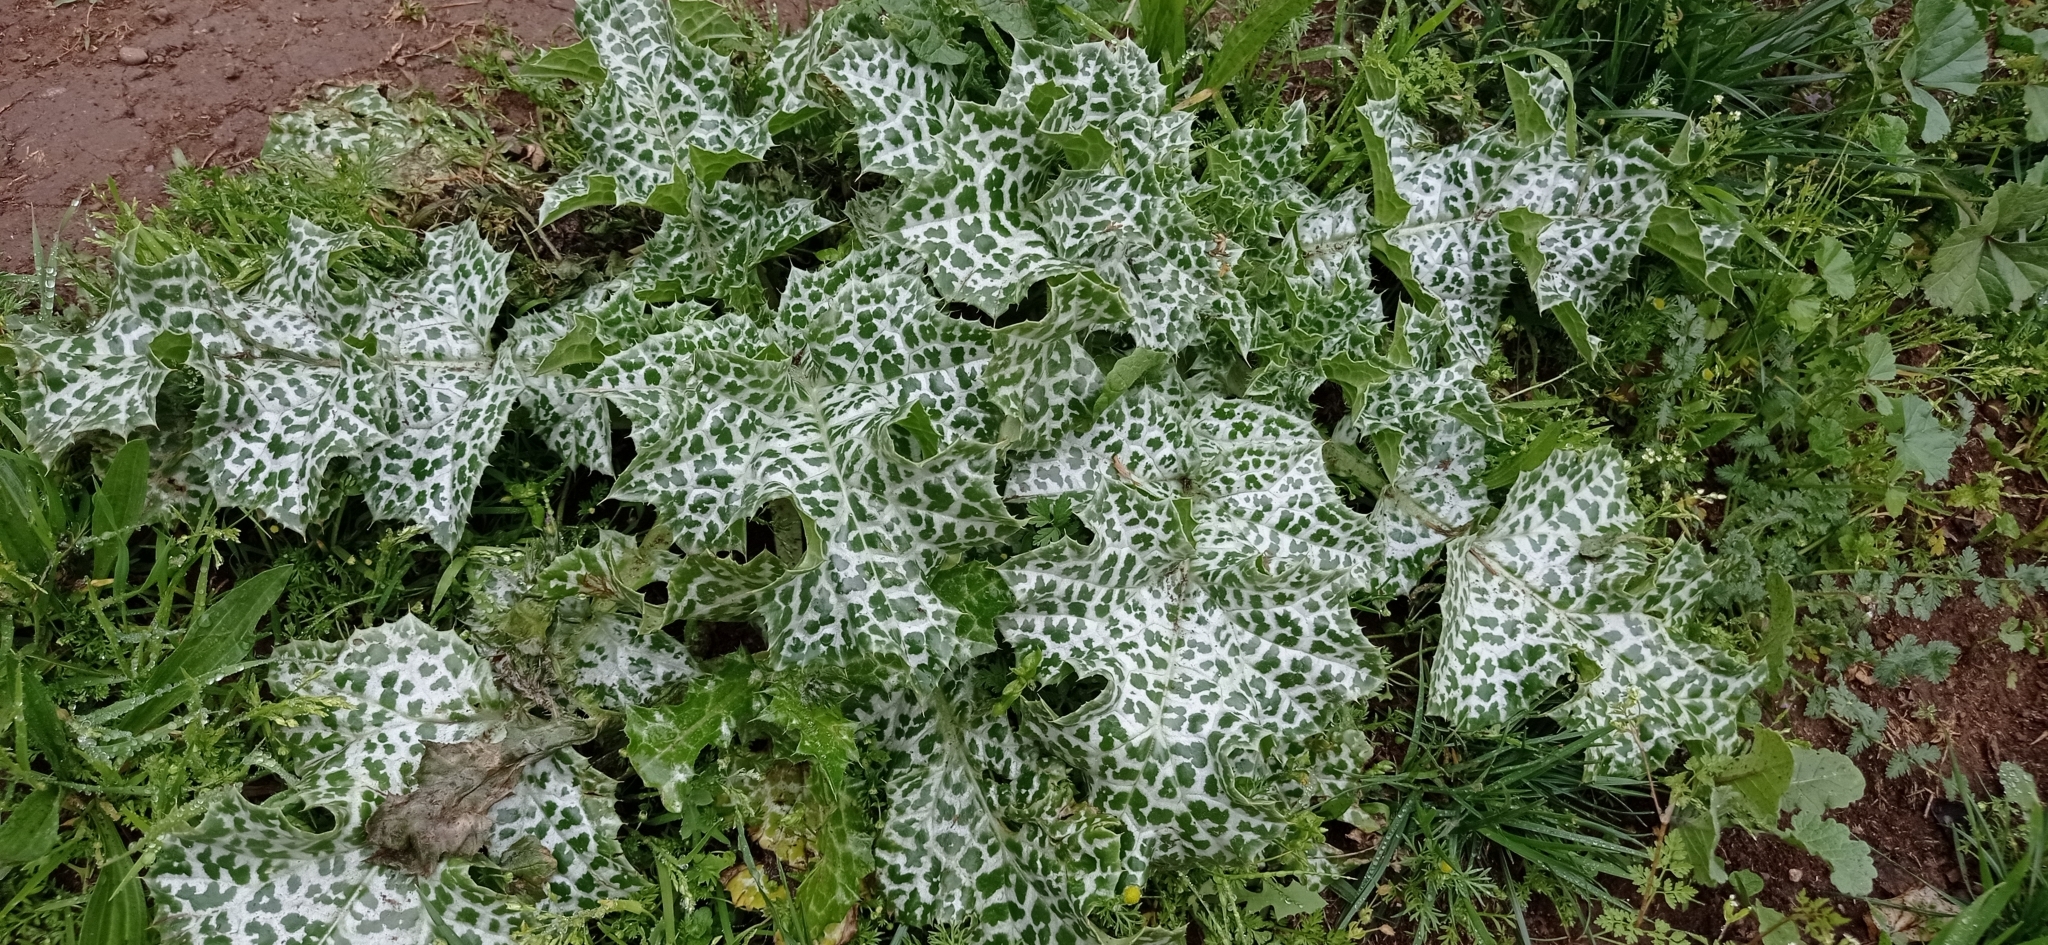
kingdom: Plantae
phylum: Tracheophyta
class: Magnoliopsida
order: Asterales
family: Asteraceae
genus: Silybum
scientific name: Silybum marianum
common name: Milk thistle
